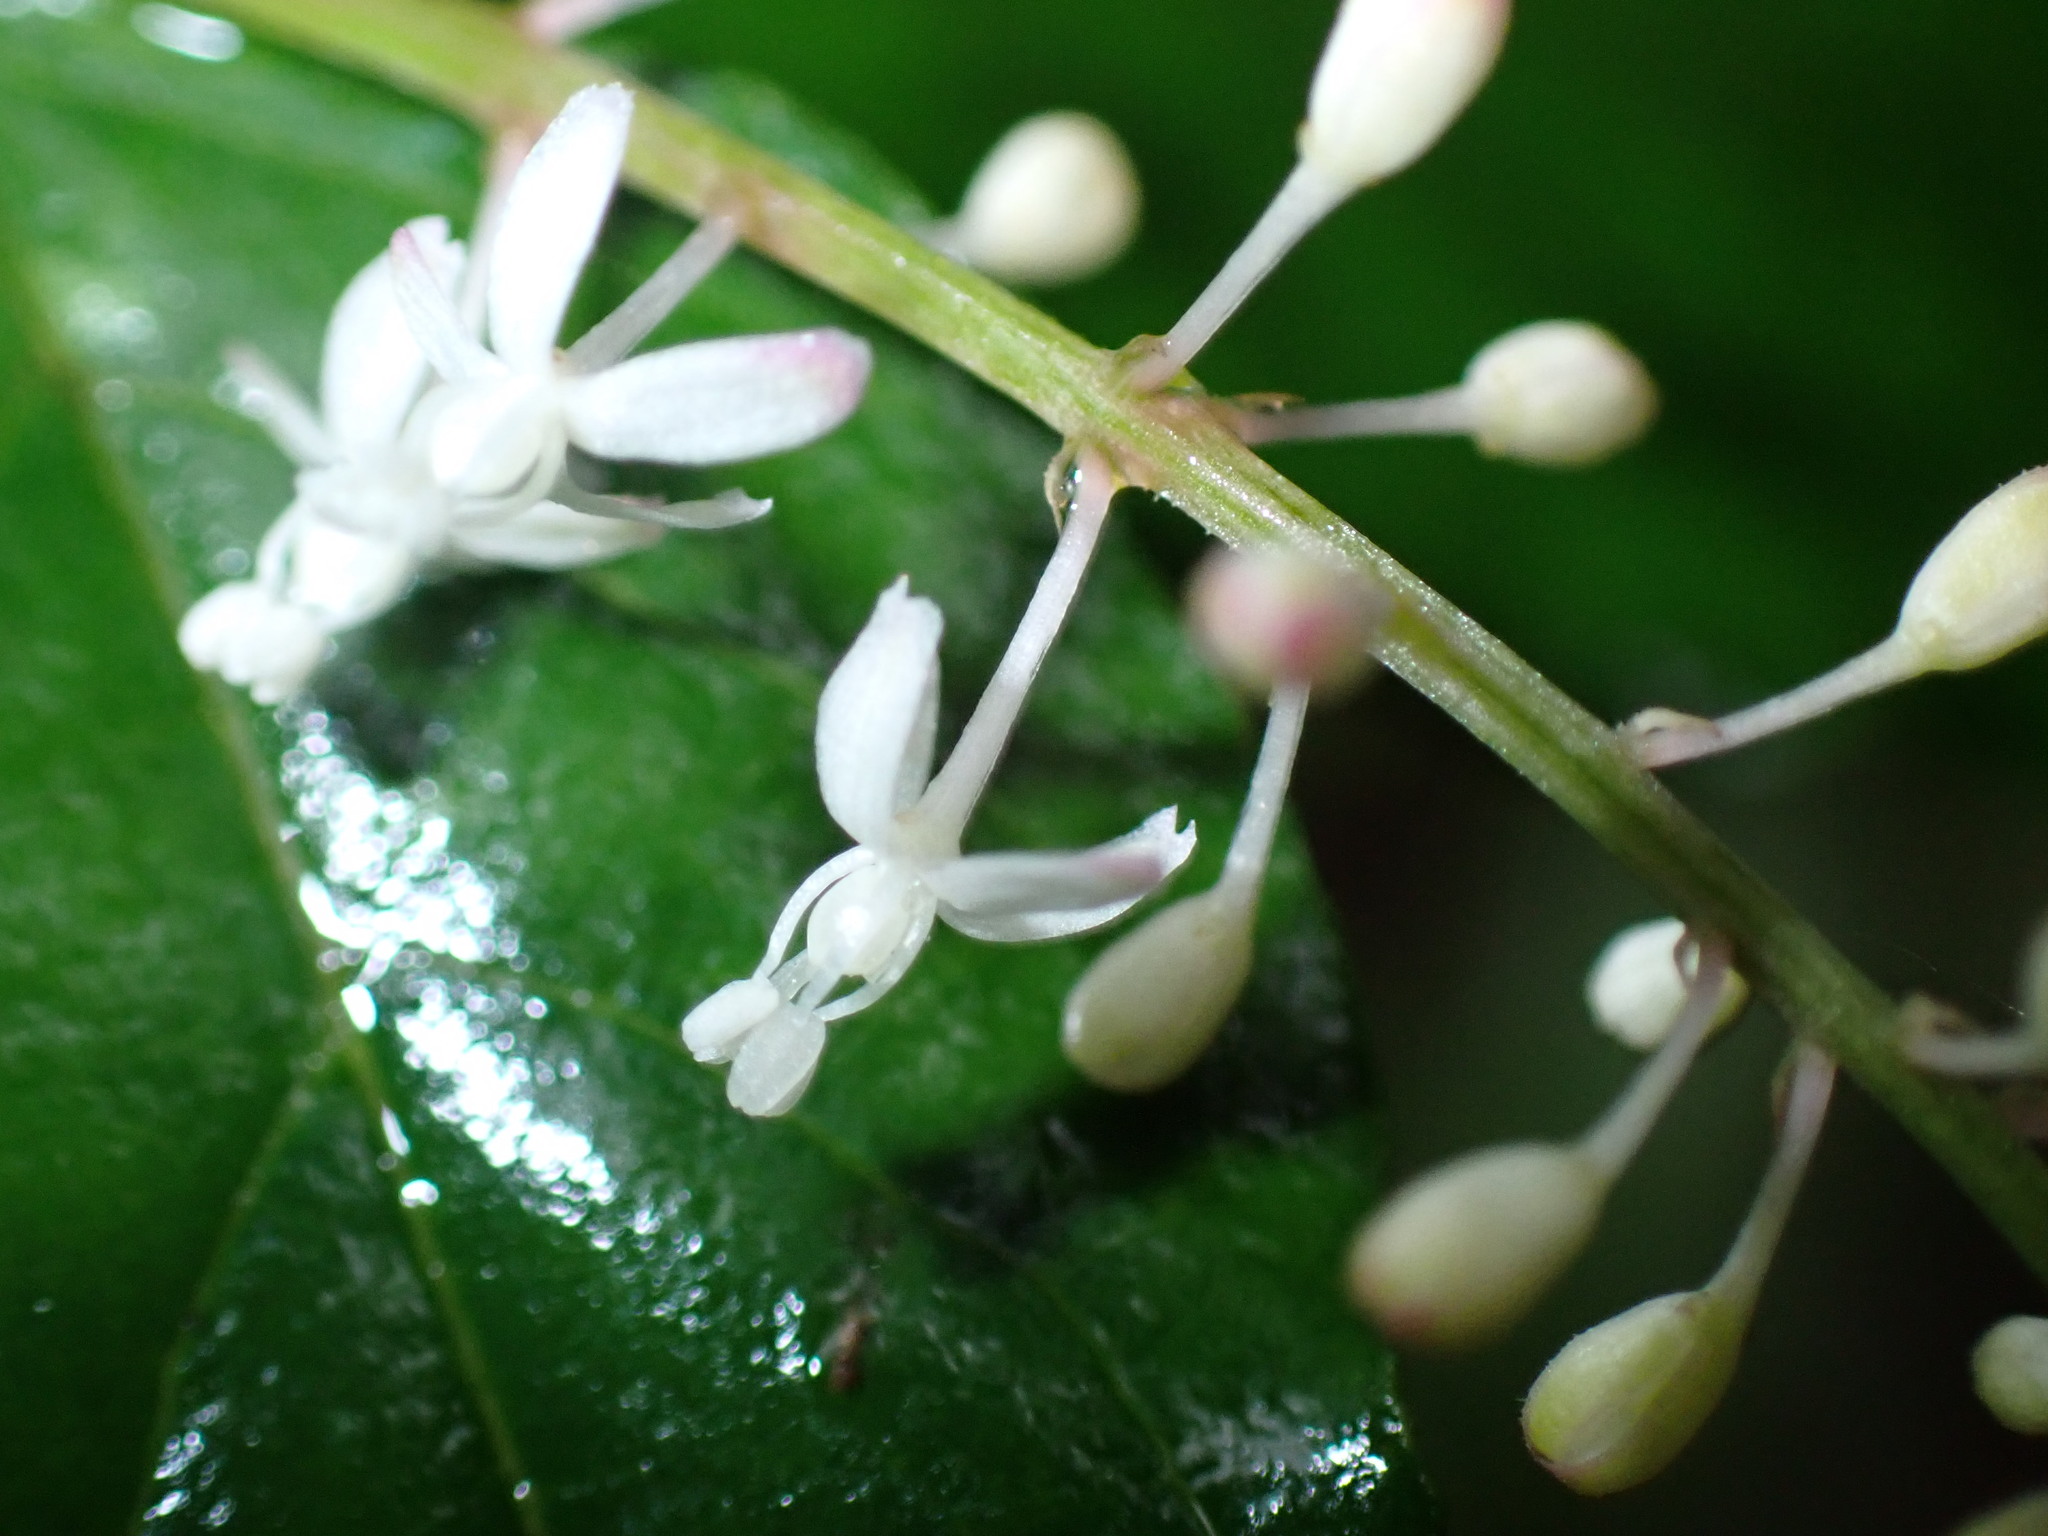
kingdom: Plantae
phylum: Tracheophyta
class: Magnoliopsida
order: Caryophyllales
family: Phytolaccaceae
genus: Rivina
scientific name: Rivina humilis
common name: Rougeplant
